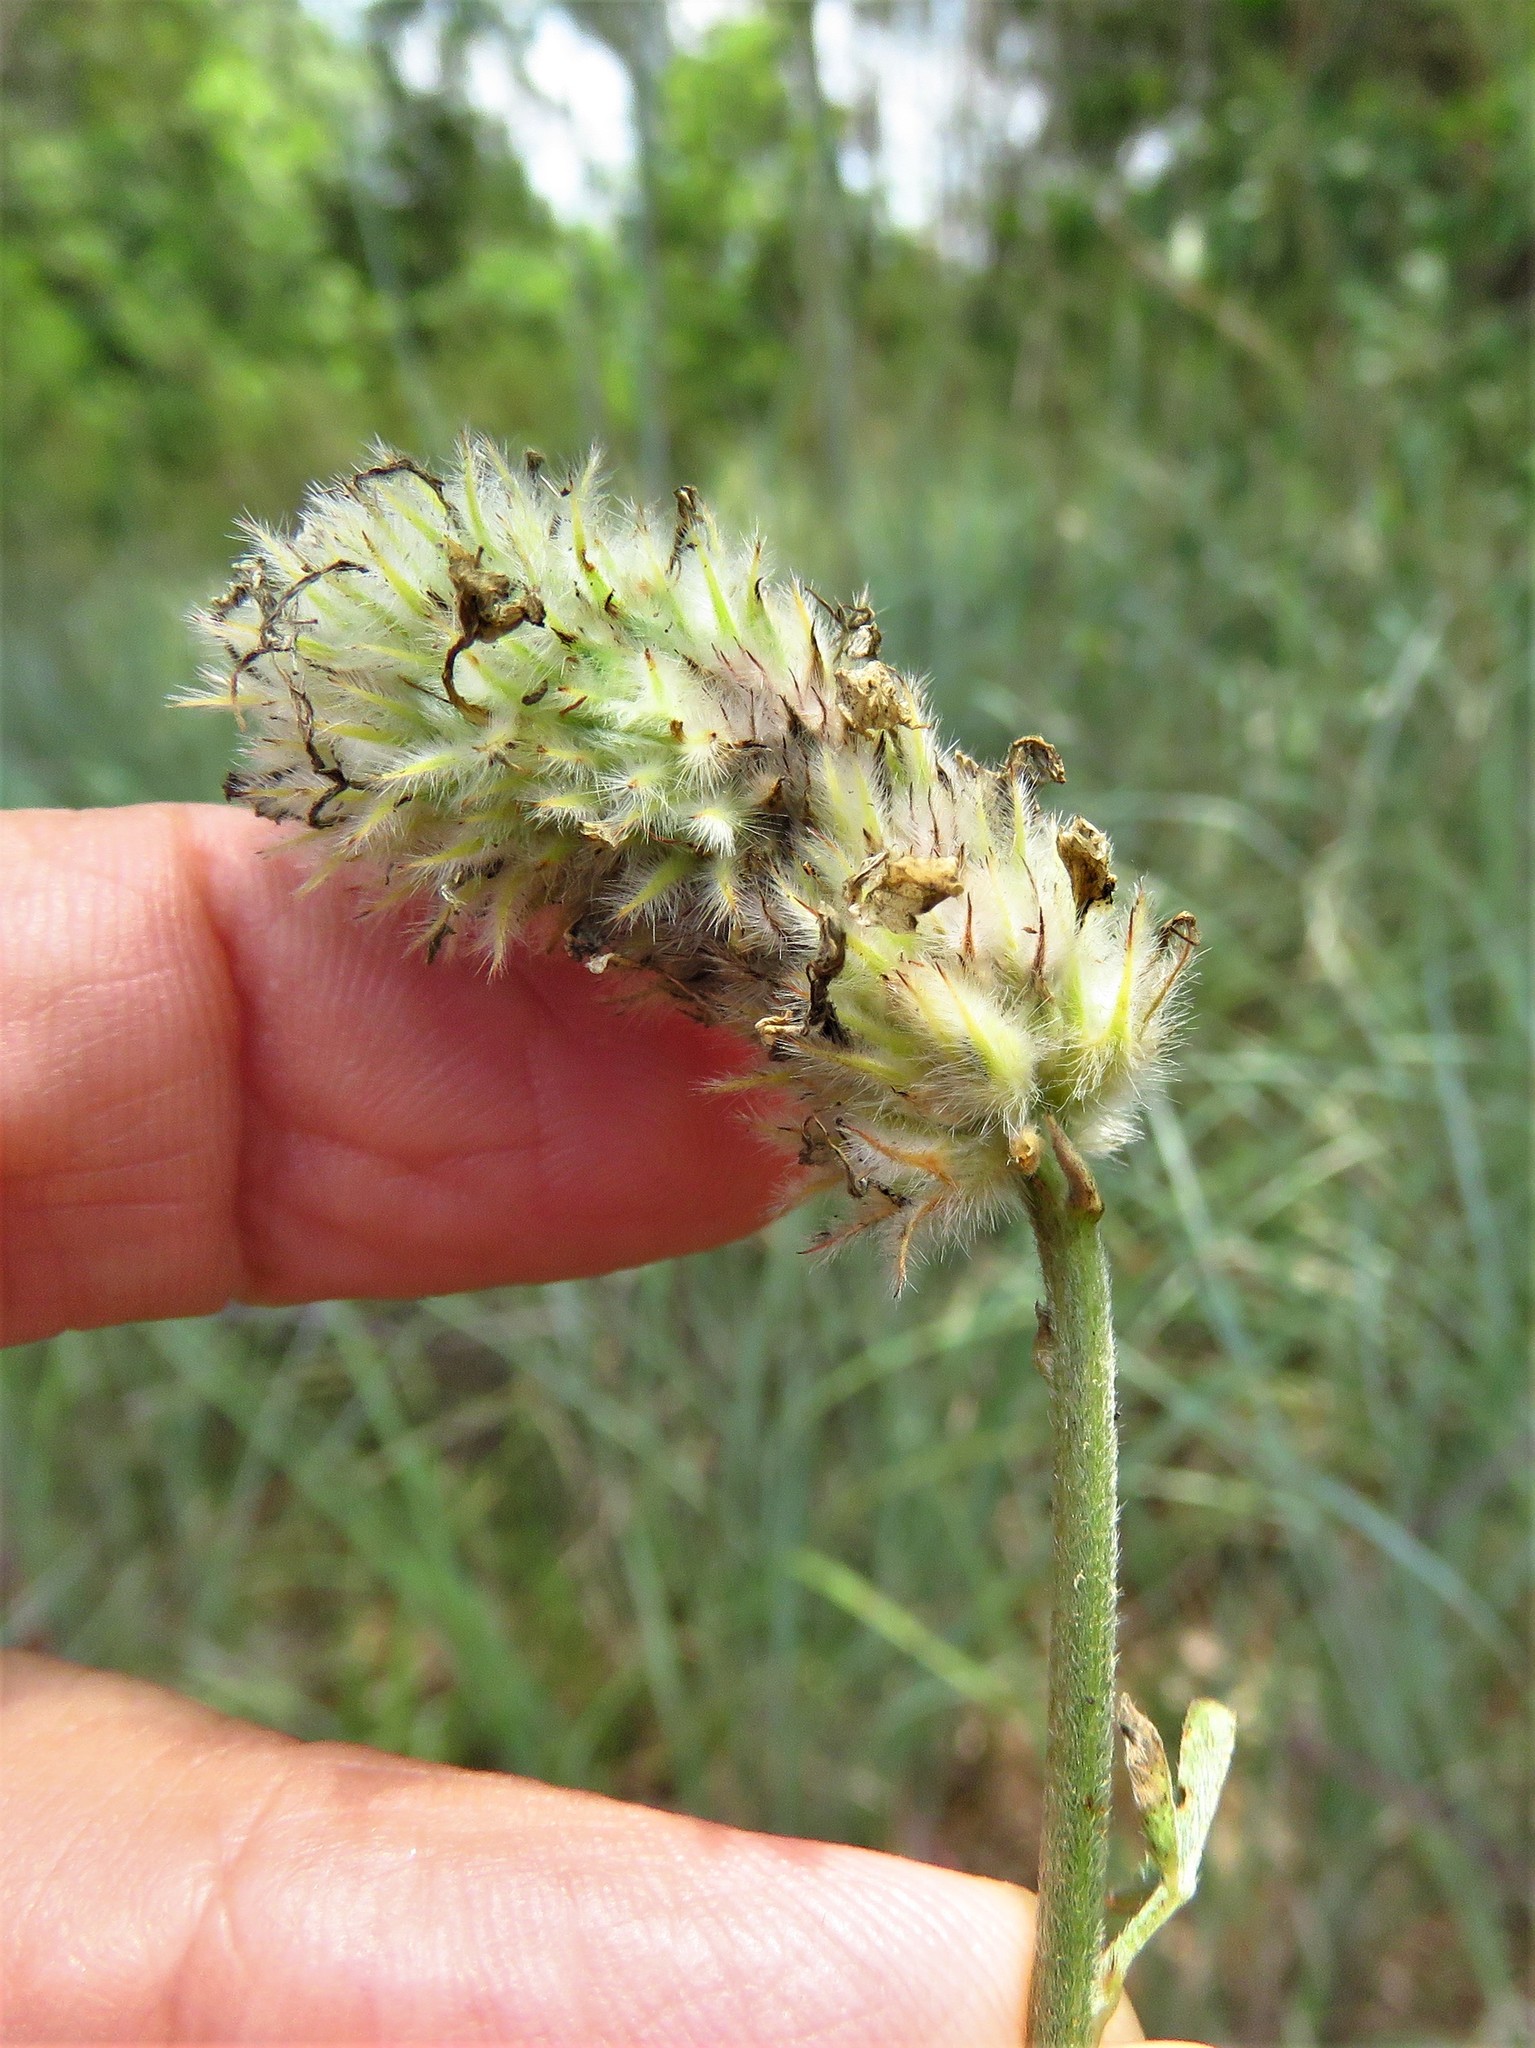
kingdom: Plantae
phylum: Tracheophyta
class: Magnoliopsida
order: Fabales
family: Fabaceae
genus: Dalea
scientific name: Dalea aurea
